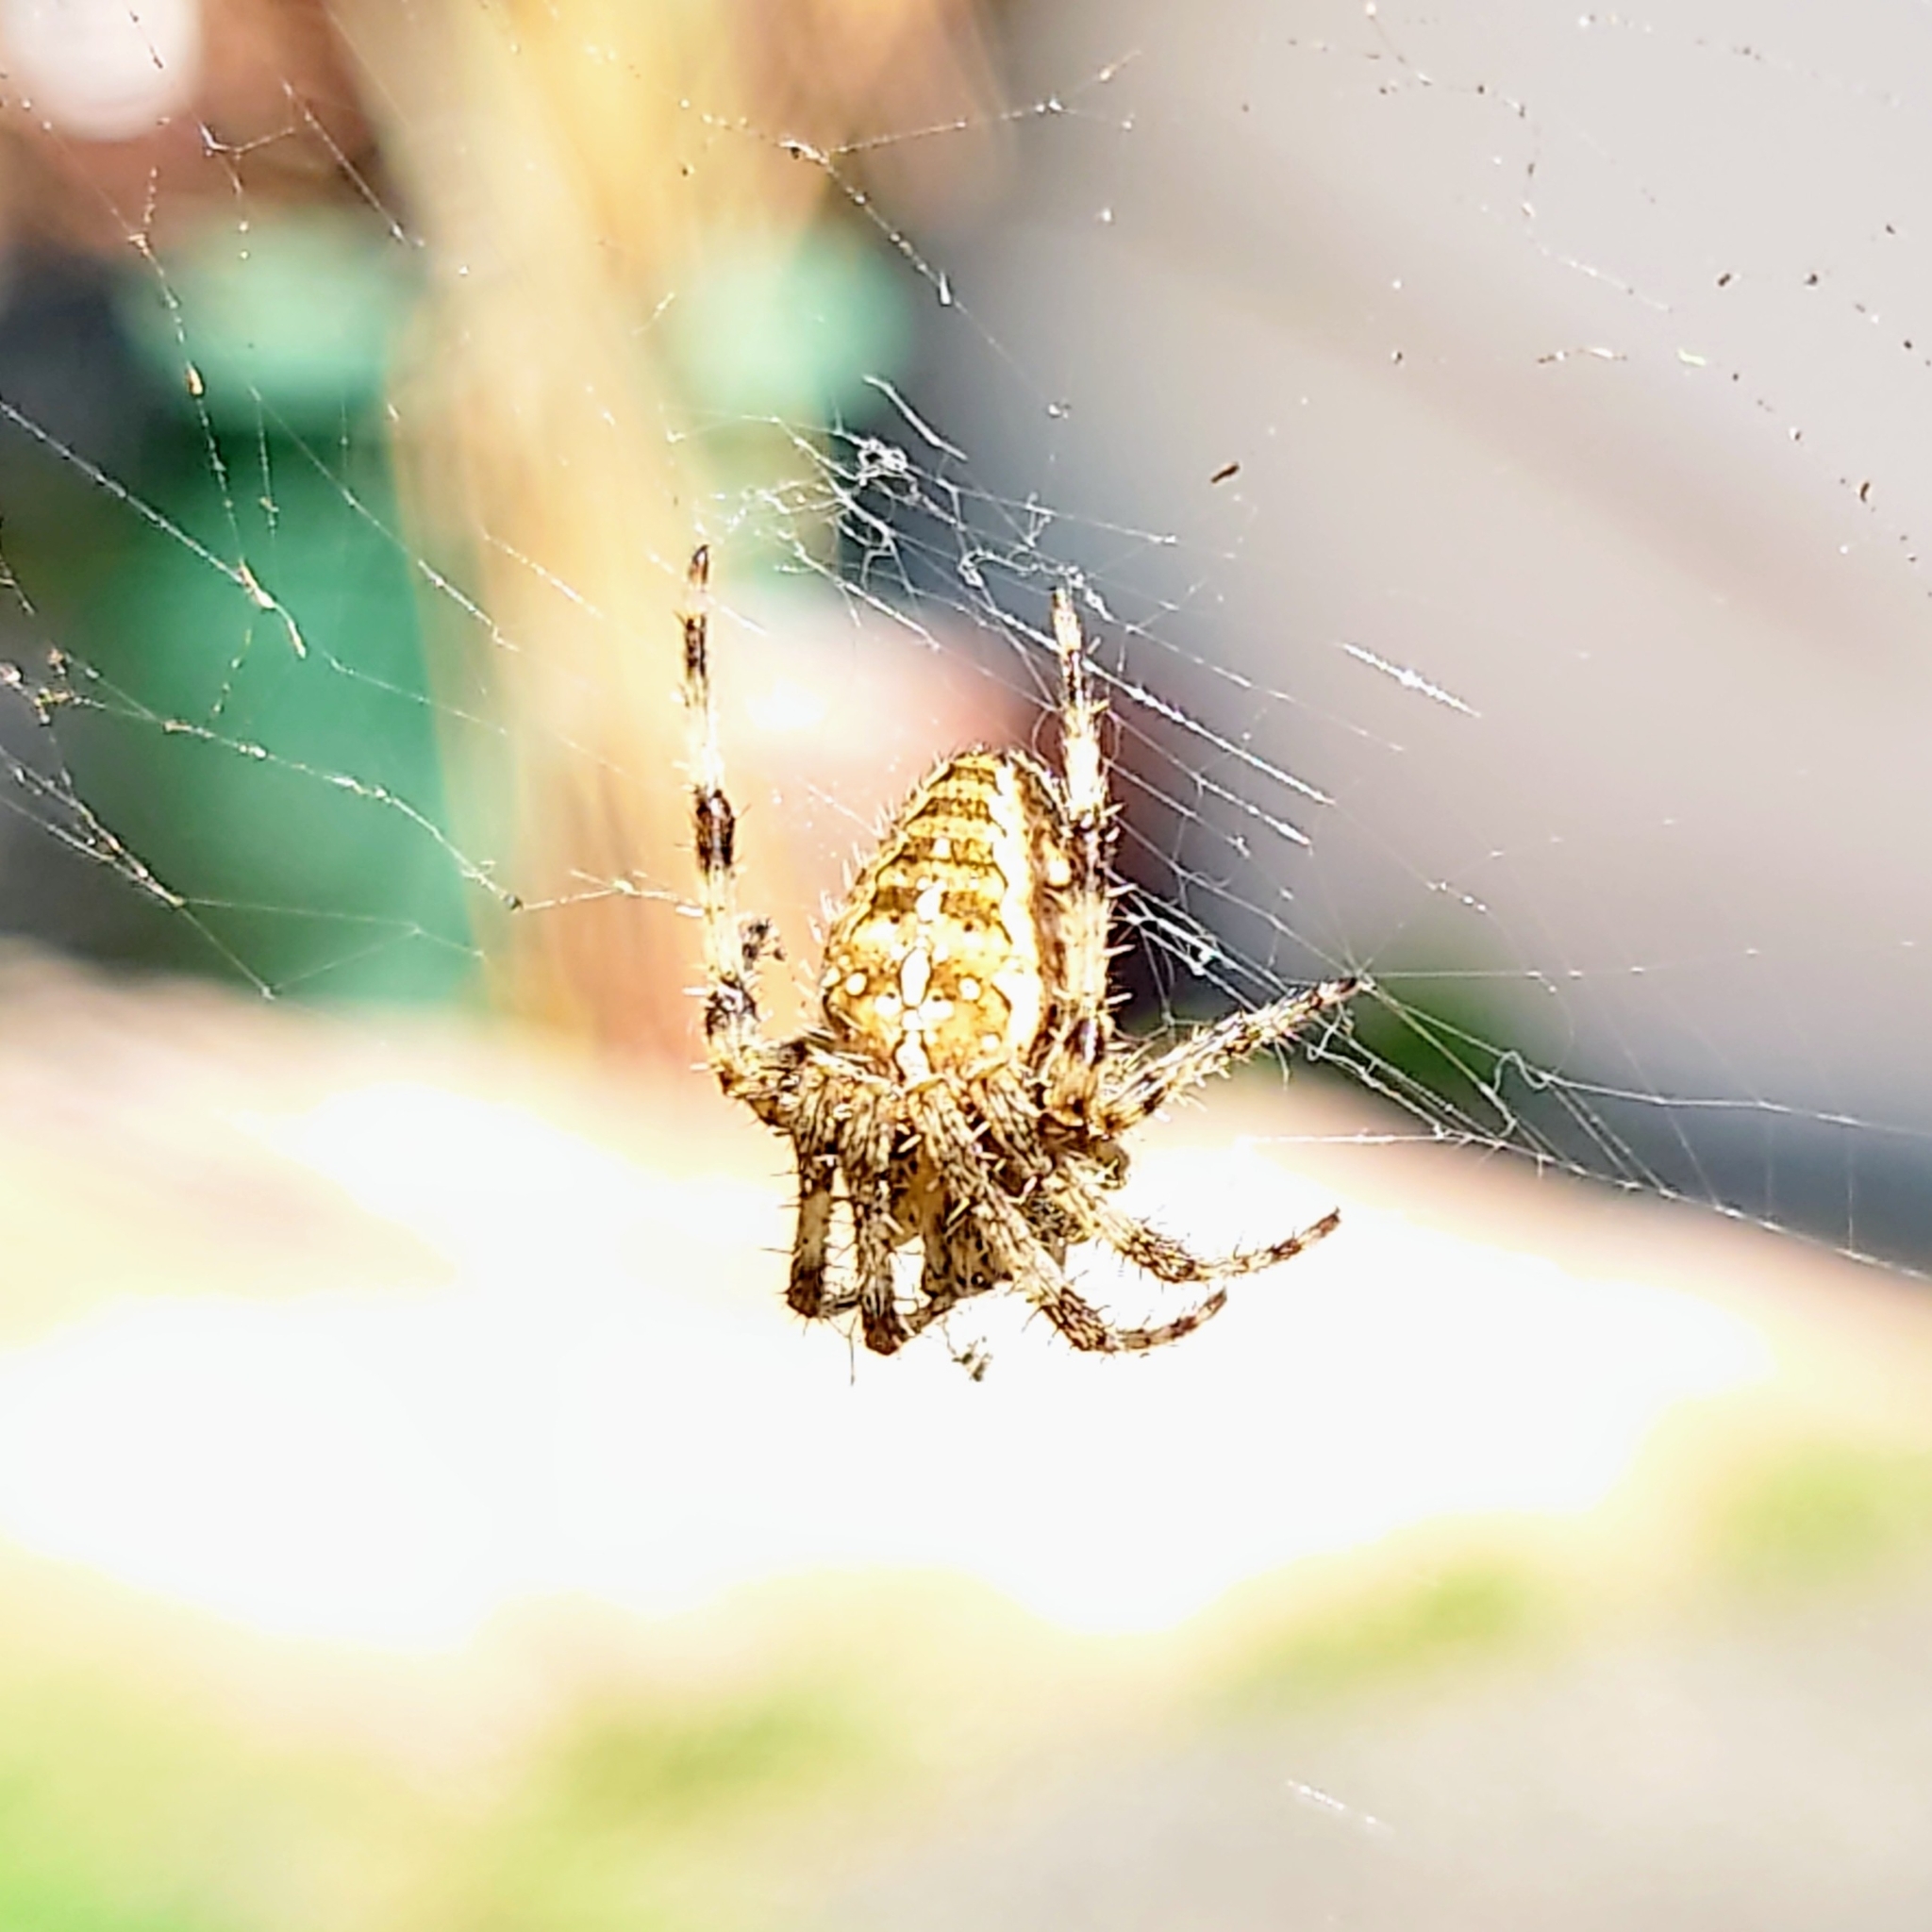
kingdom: Animalia
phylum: Arthropoda
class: Arachnida
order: Araneae
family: Araneidae
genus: Araneus
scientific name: Araneus diadematus
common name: Cross orbweaver
